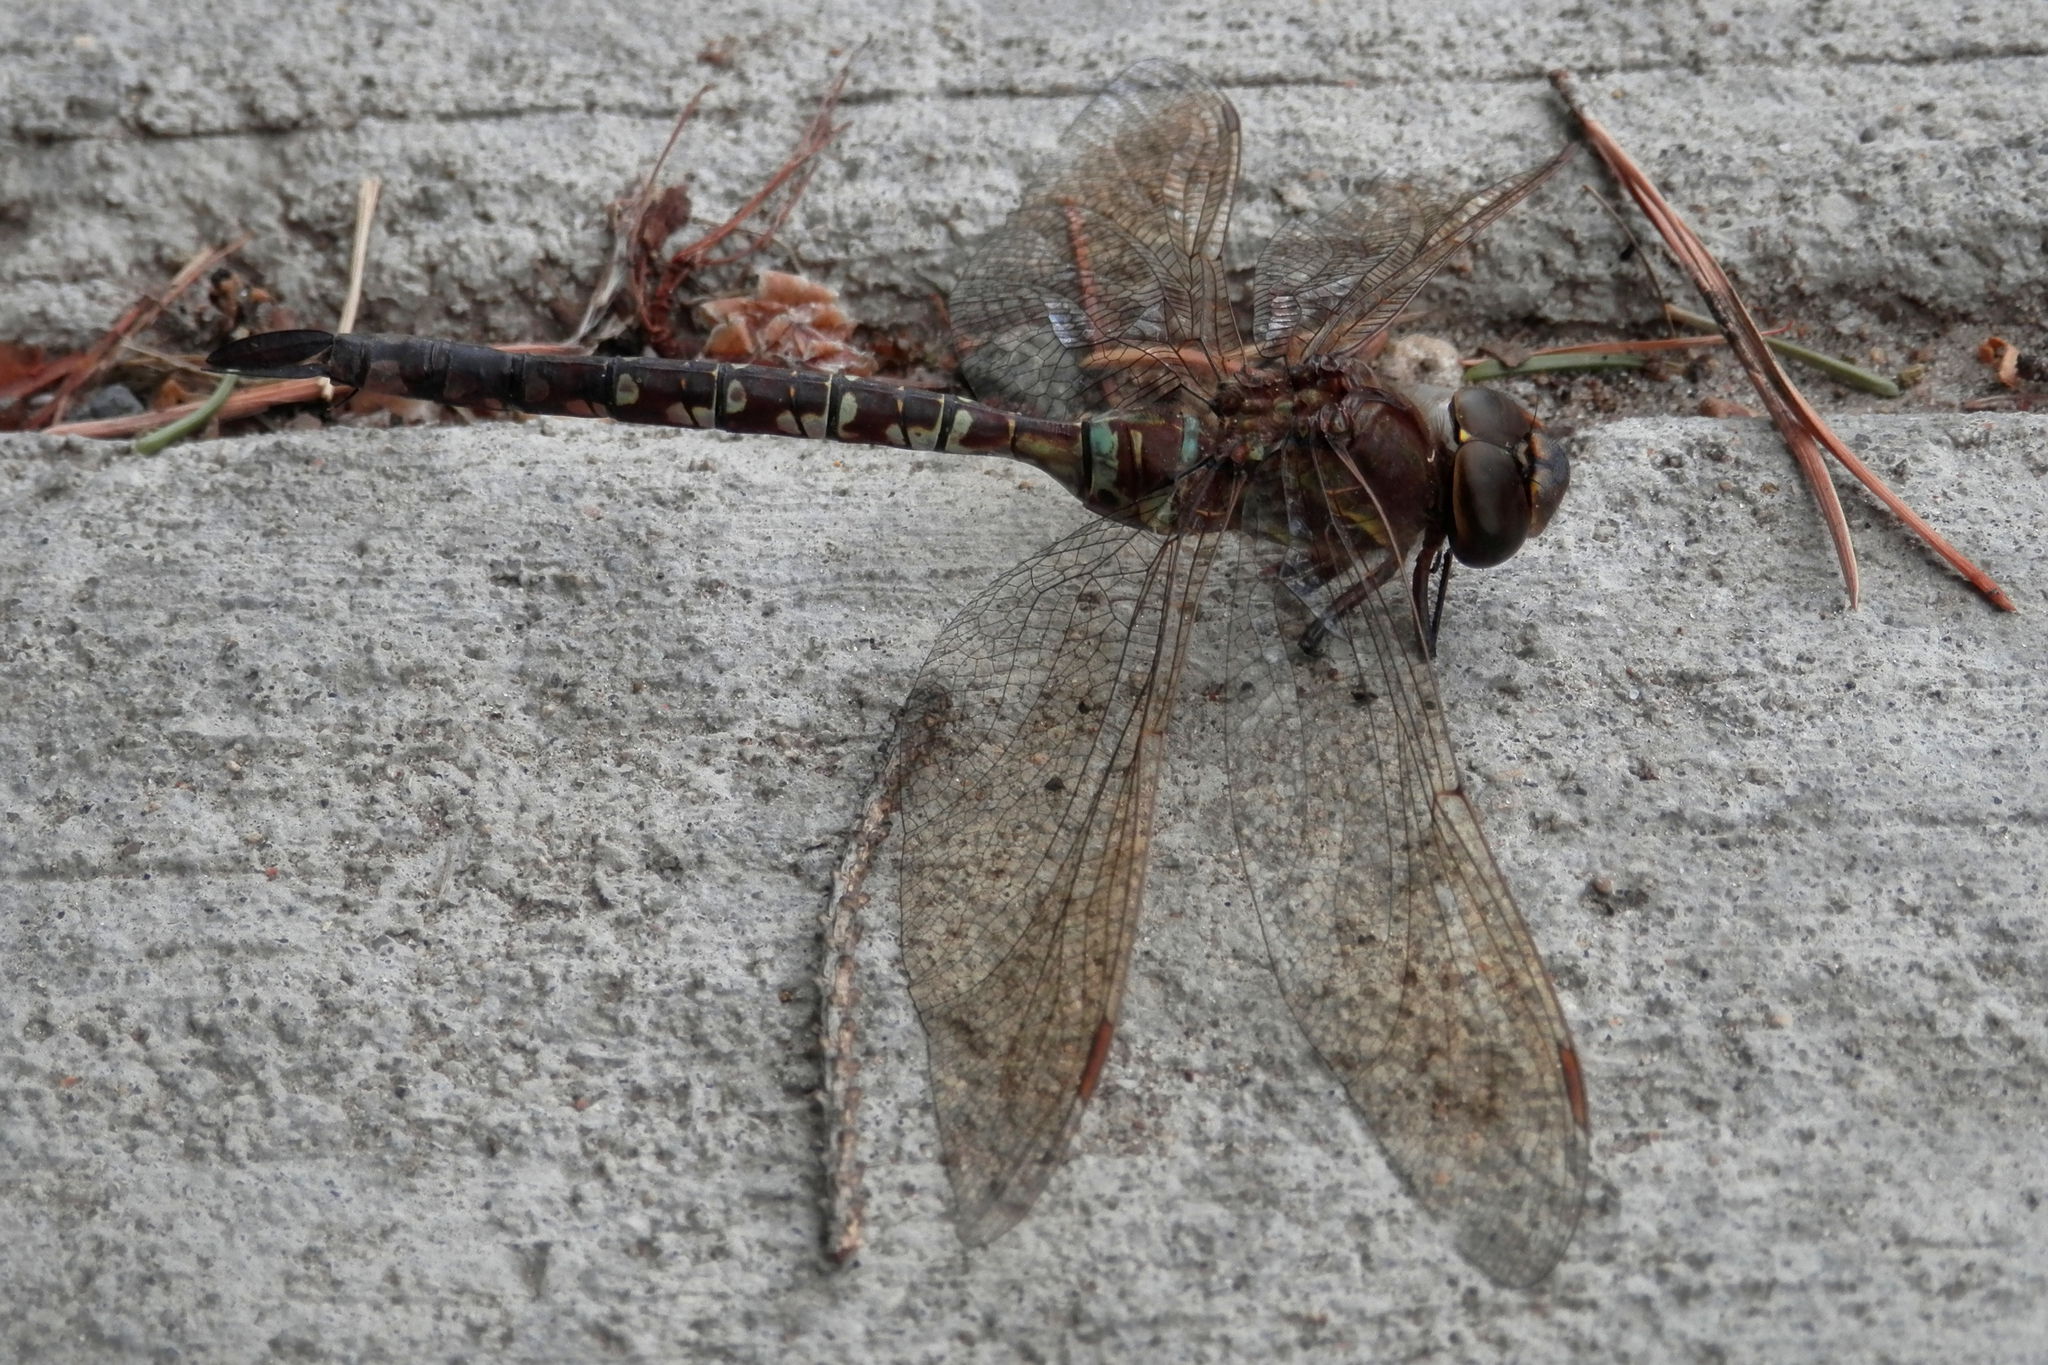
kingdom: Animalia
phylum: Arthropoda
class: Insecta
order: Odonata
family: Aeshnidae
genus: Aeshna
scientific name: Aeshna constricta
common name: Lance-tipped darner
